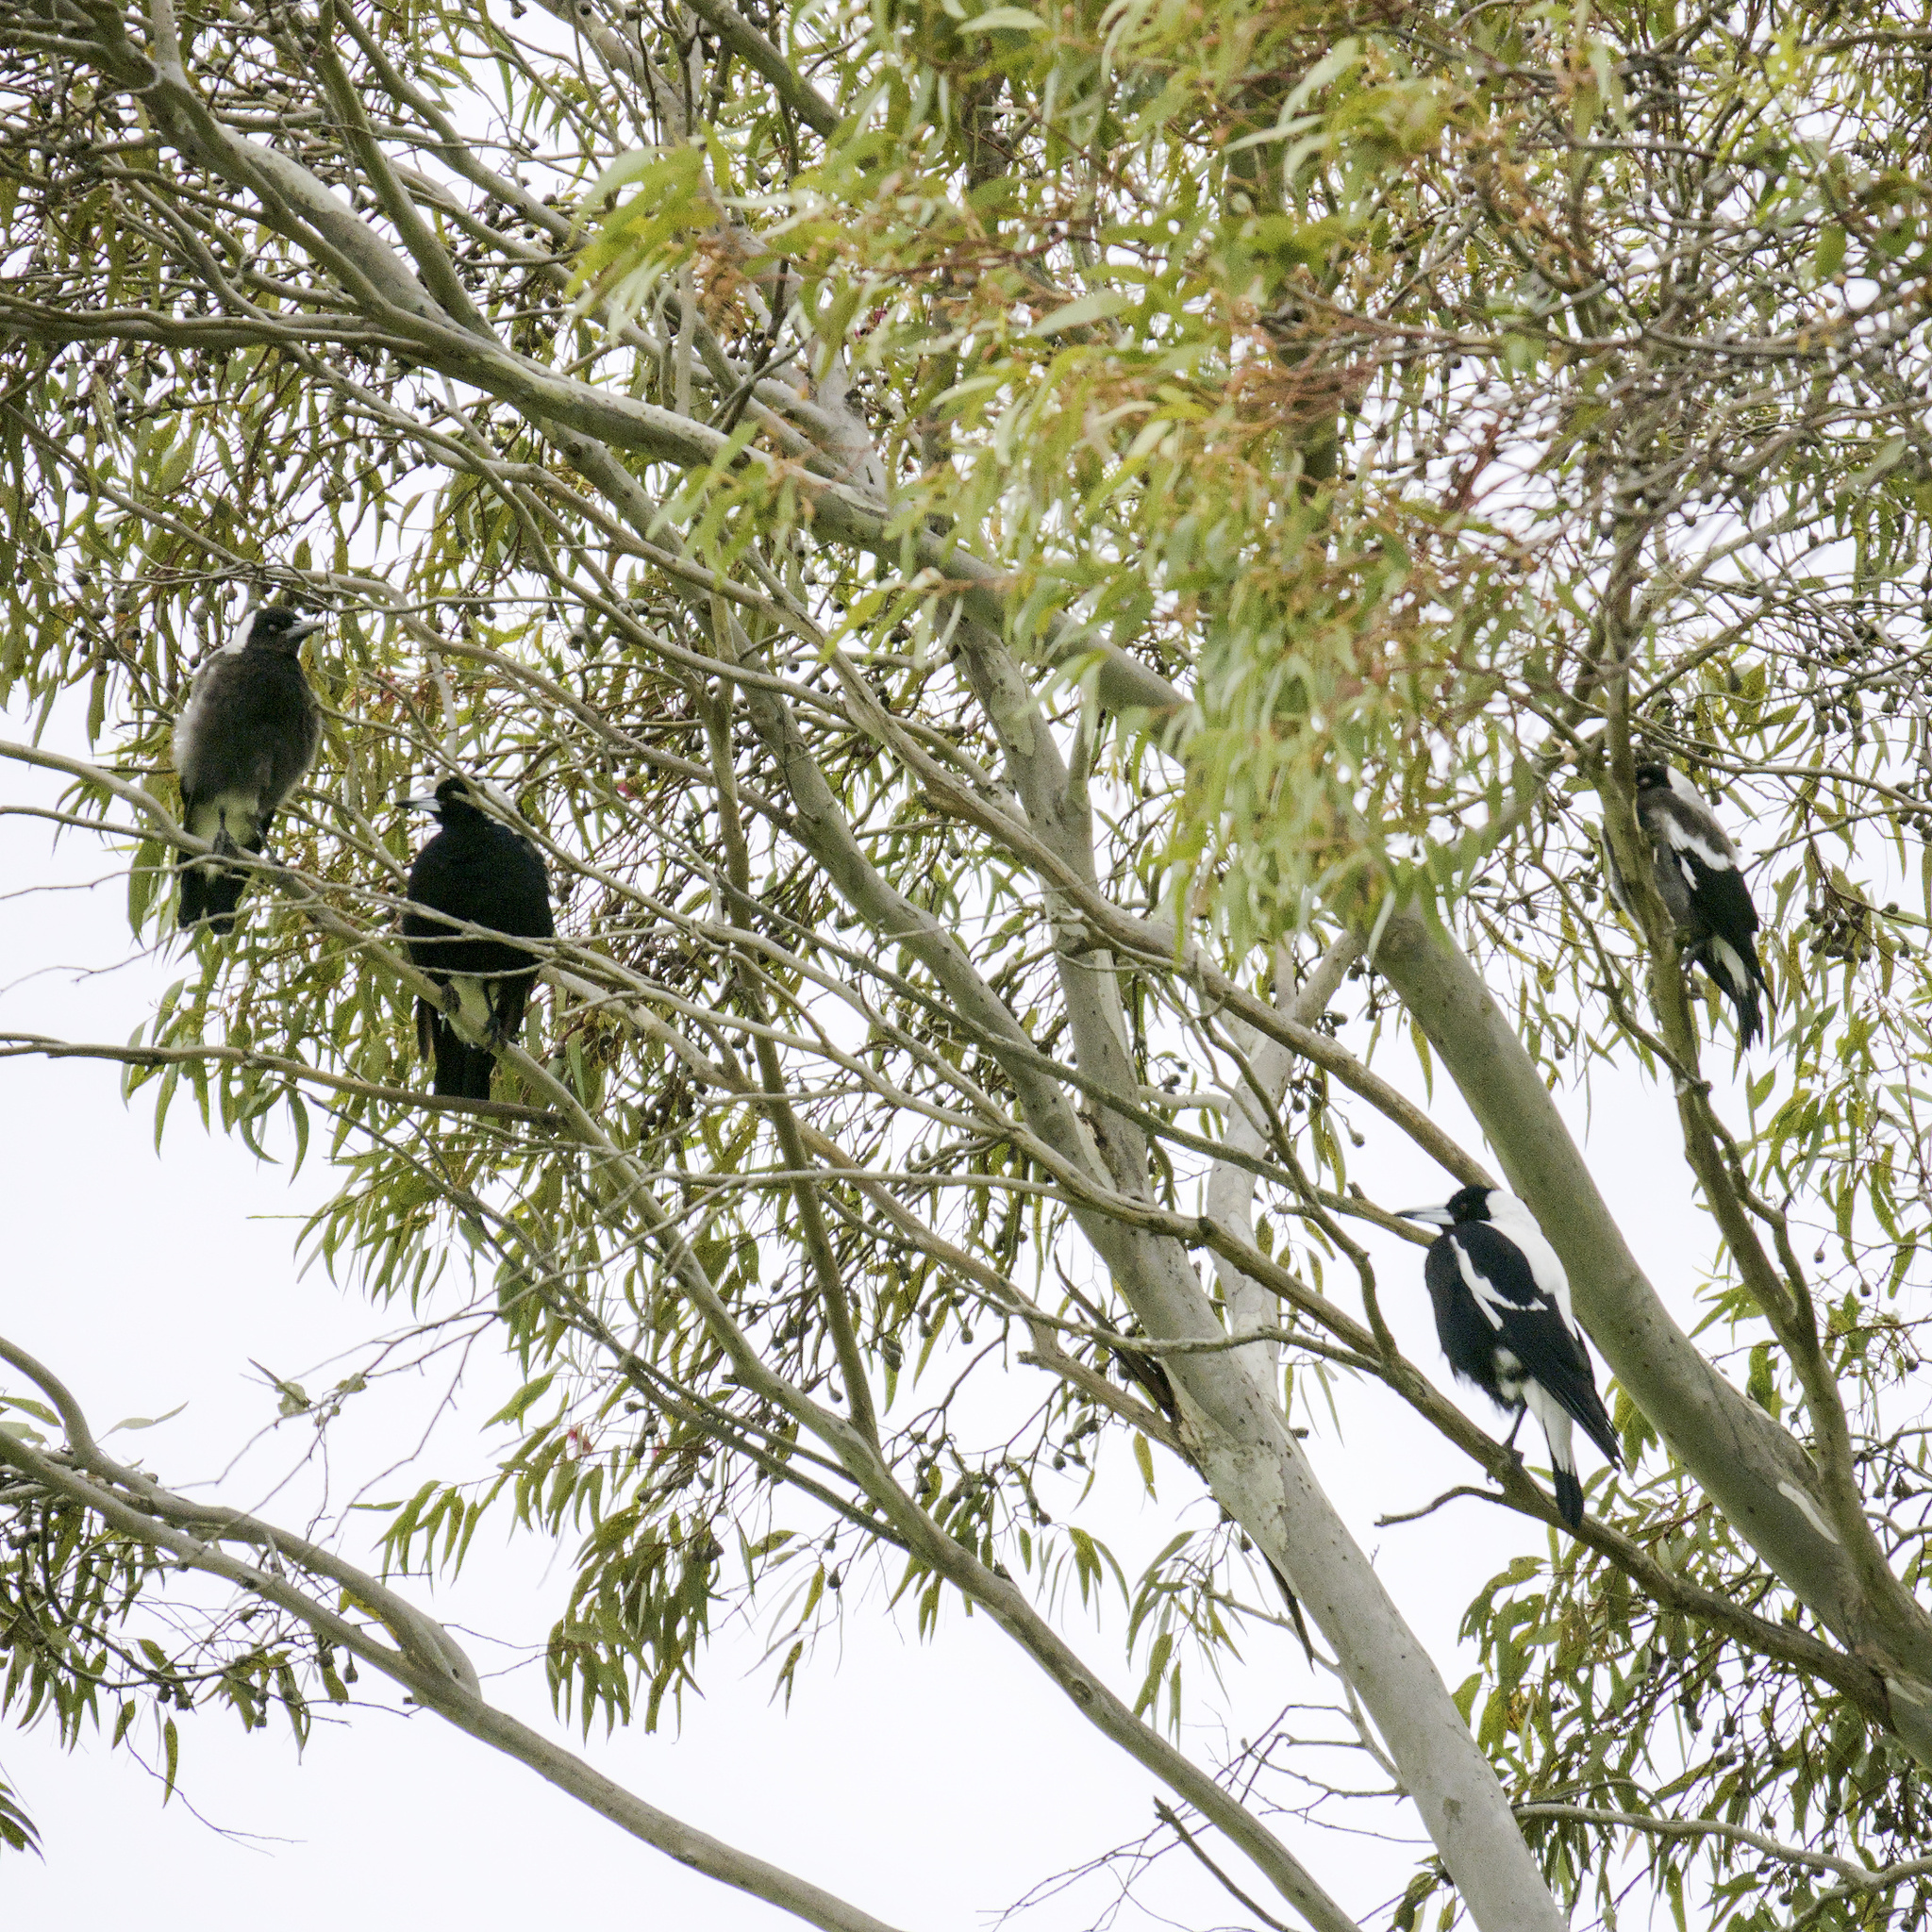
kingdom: Animalia
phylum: Chordata
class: Aves
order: Passeriformes
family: Cracticidae
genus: Gymnorhina
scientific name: Gymnorhina tibicen
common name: Australian magpie
